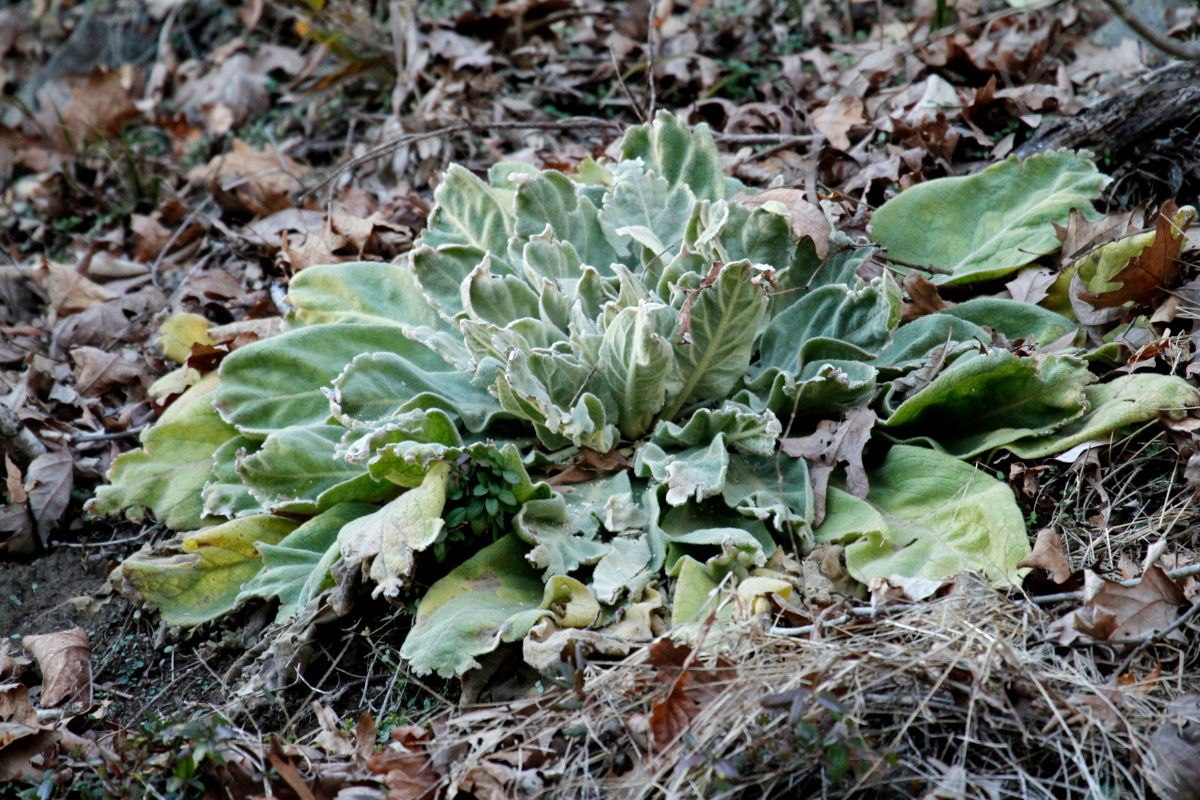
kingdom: Plantae
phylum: Tracheophyta
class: Magnoliopsida
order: Lamiales
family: Scrophulariaceae
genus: Verbascum
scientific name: Verbascum thapsus
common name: Common mullein
